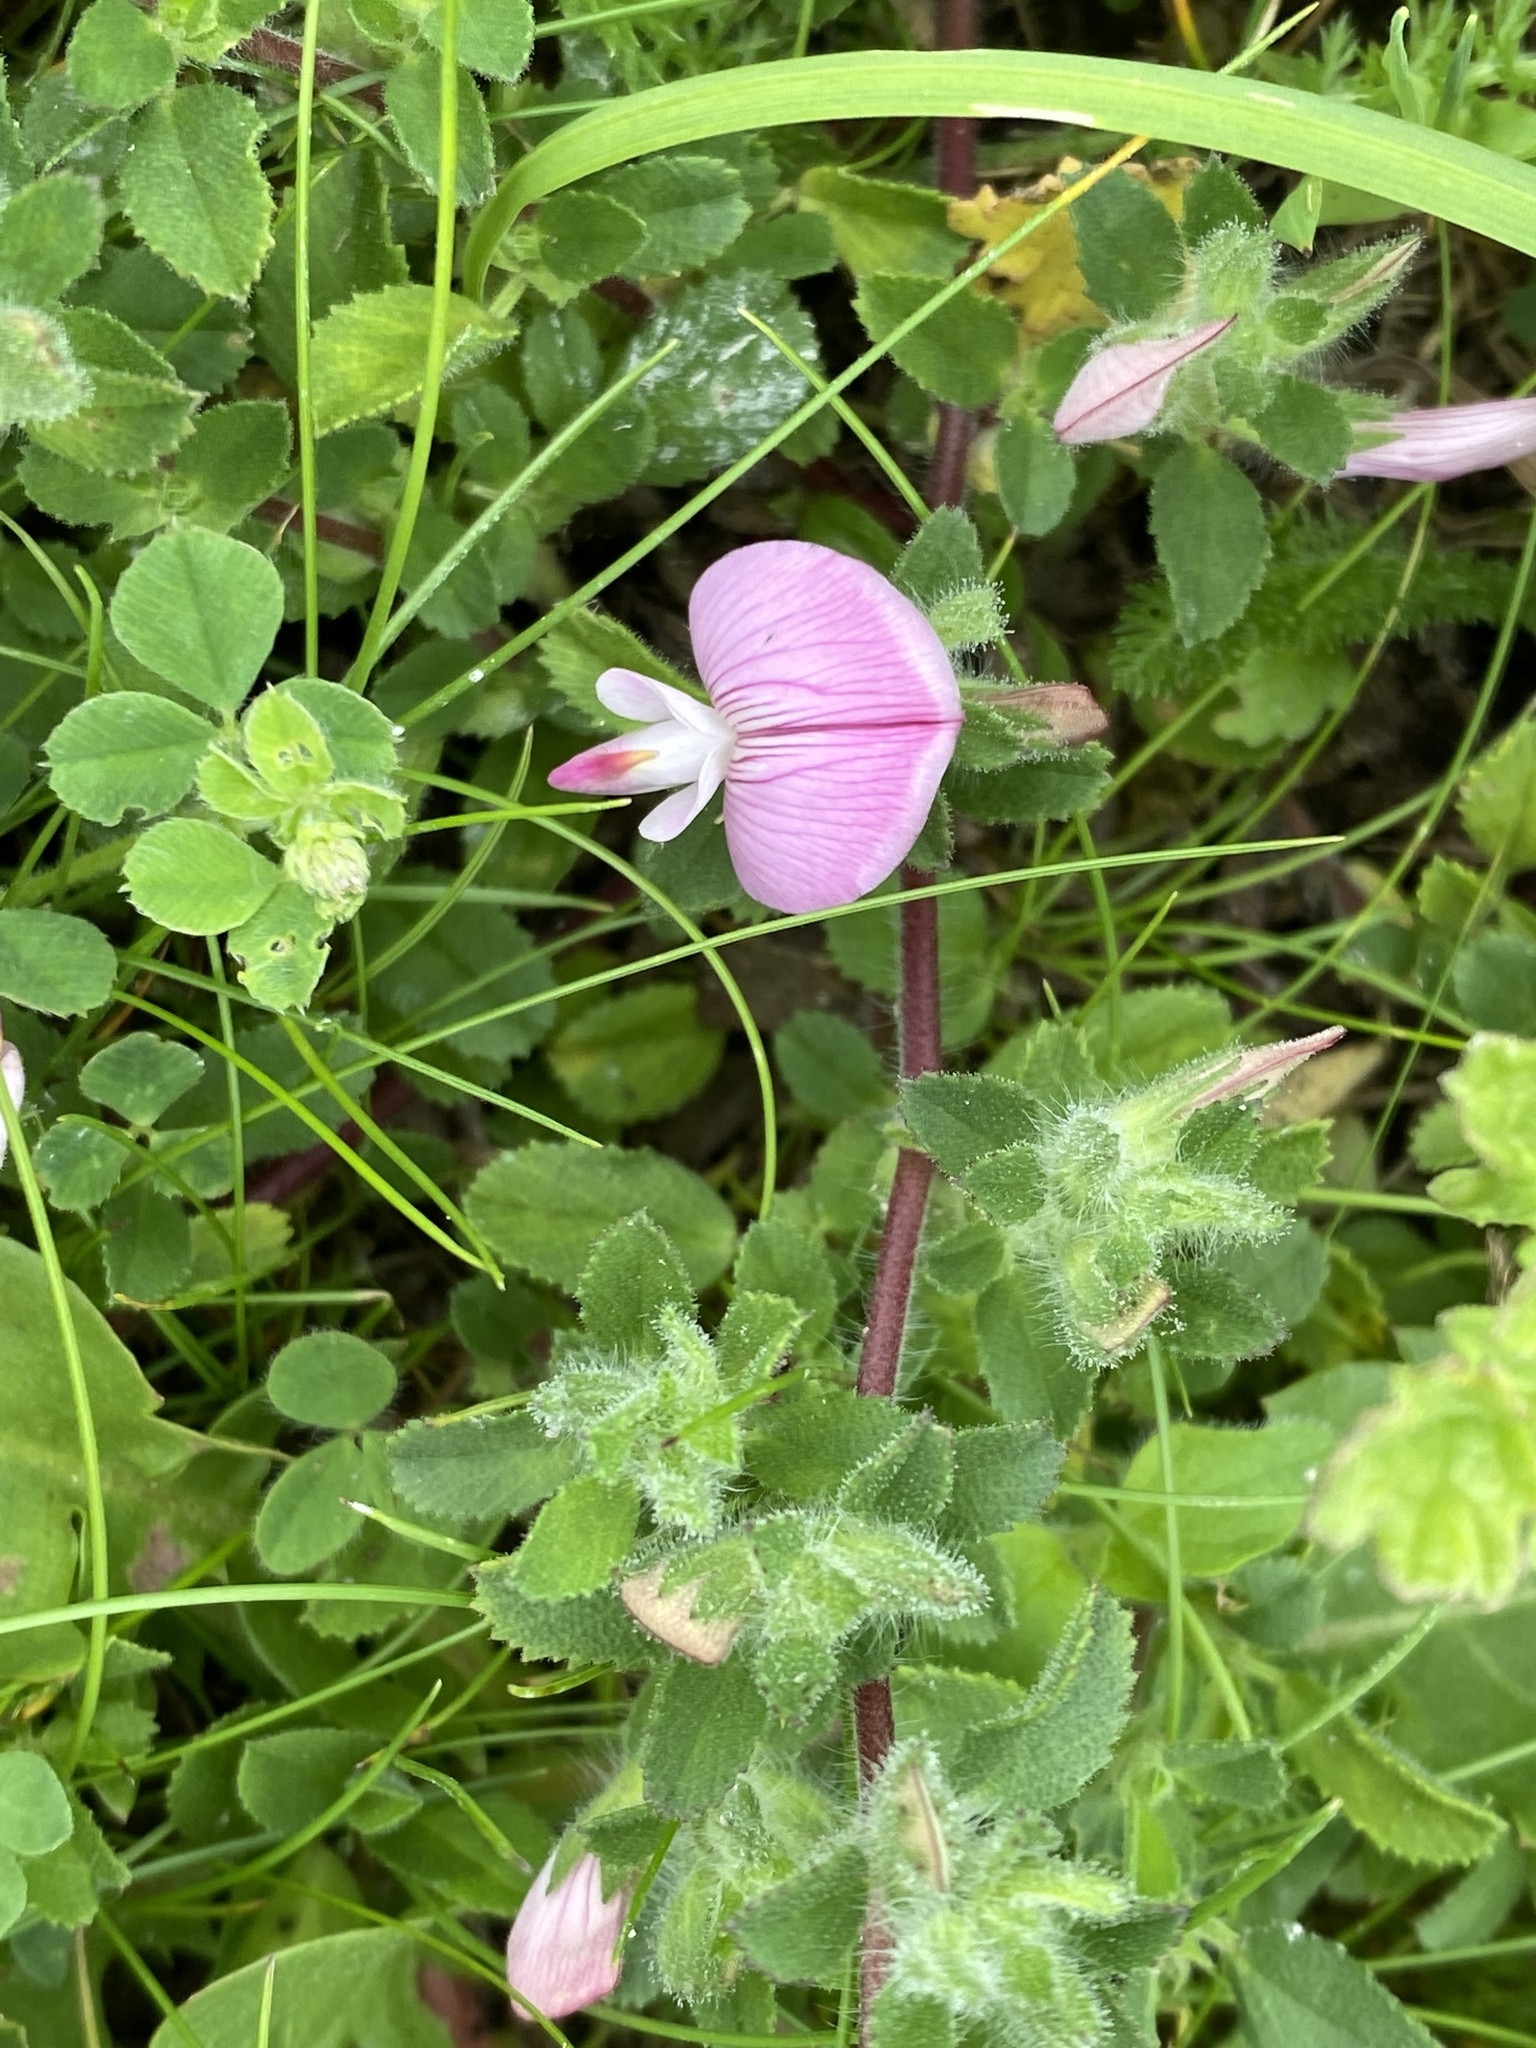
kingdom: Plantae
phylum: Tracheophyta
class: Magnoliopsida
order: Fabales
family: Fabaceae
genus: Ononis
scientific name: Ononis spinosa
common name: Spiny restharrow
